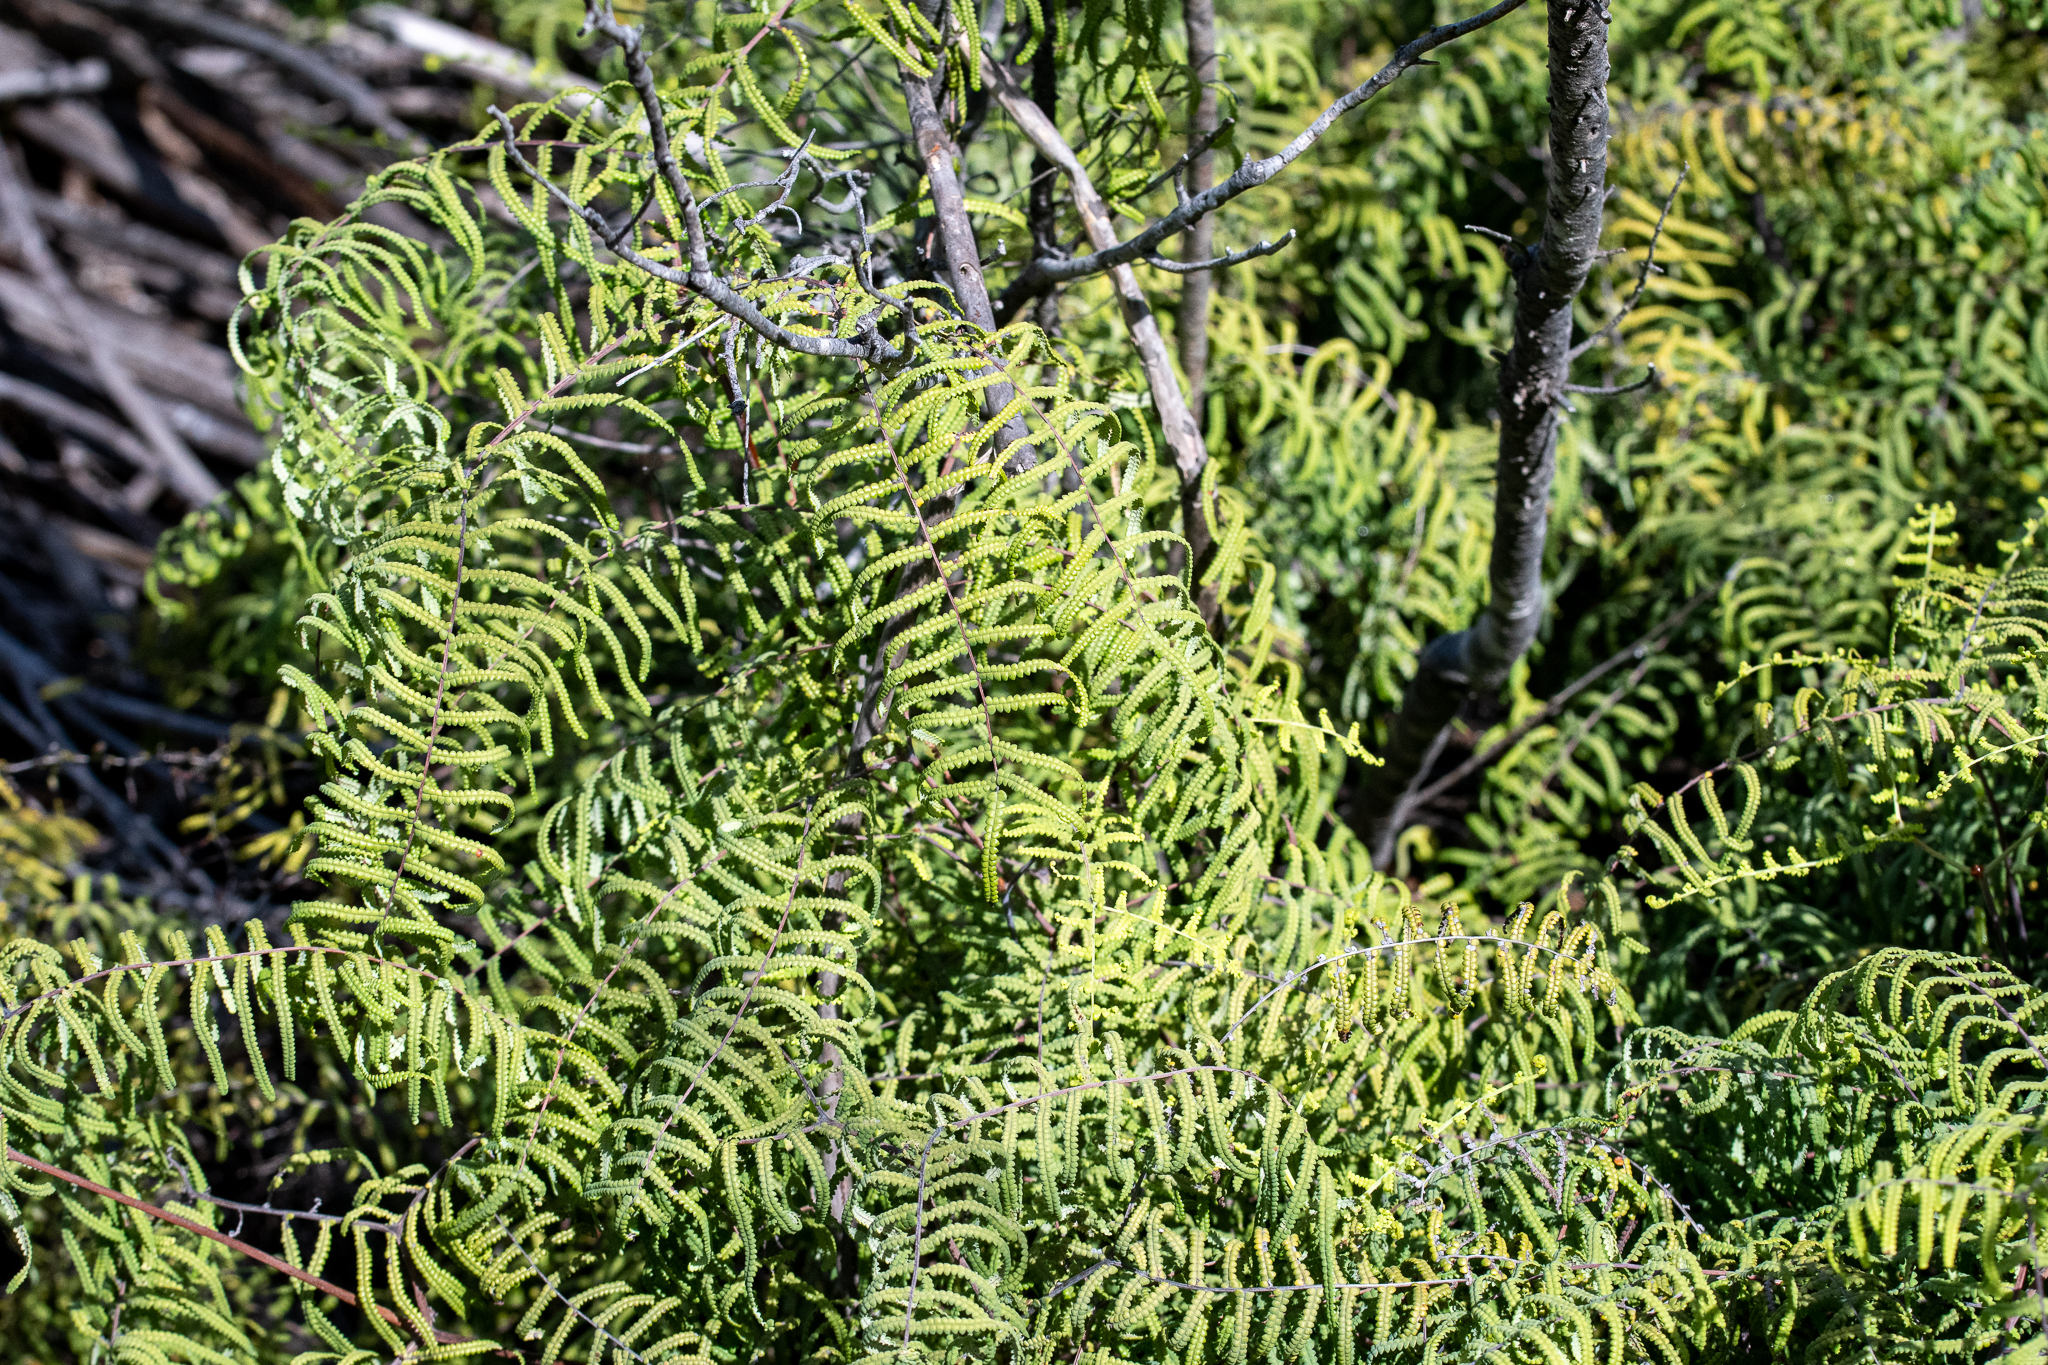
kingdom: Plantae
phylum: Tracheophyta
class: Polypodiopsida
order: Gleicheniales
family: Gleicheniaceae
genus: Gleichenia
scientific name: Gleichenia polypodioides
